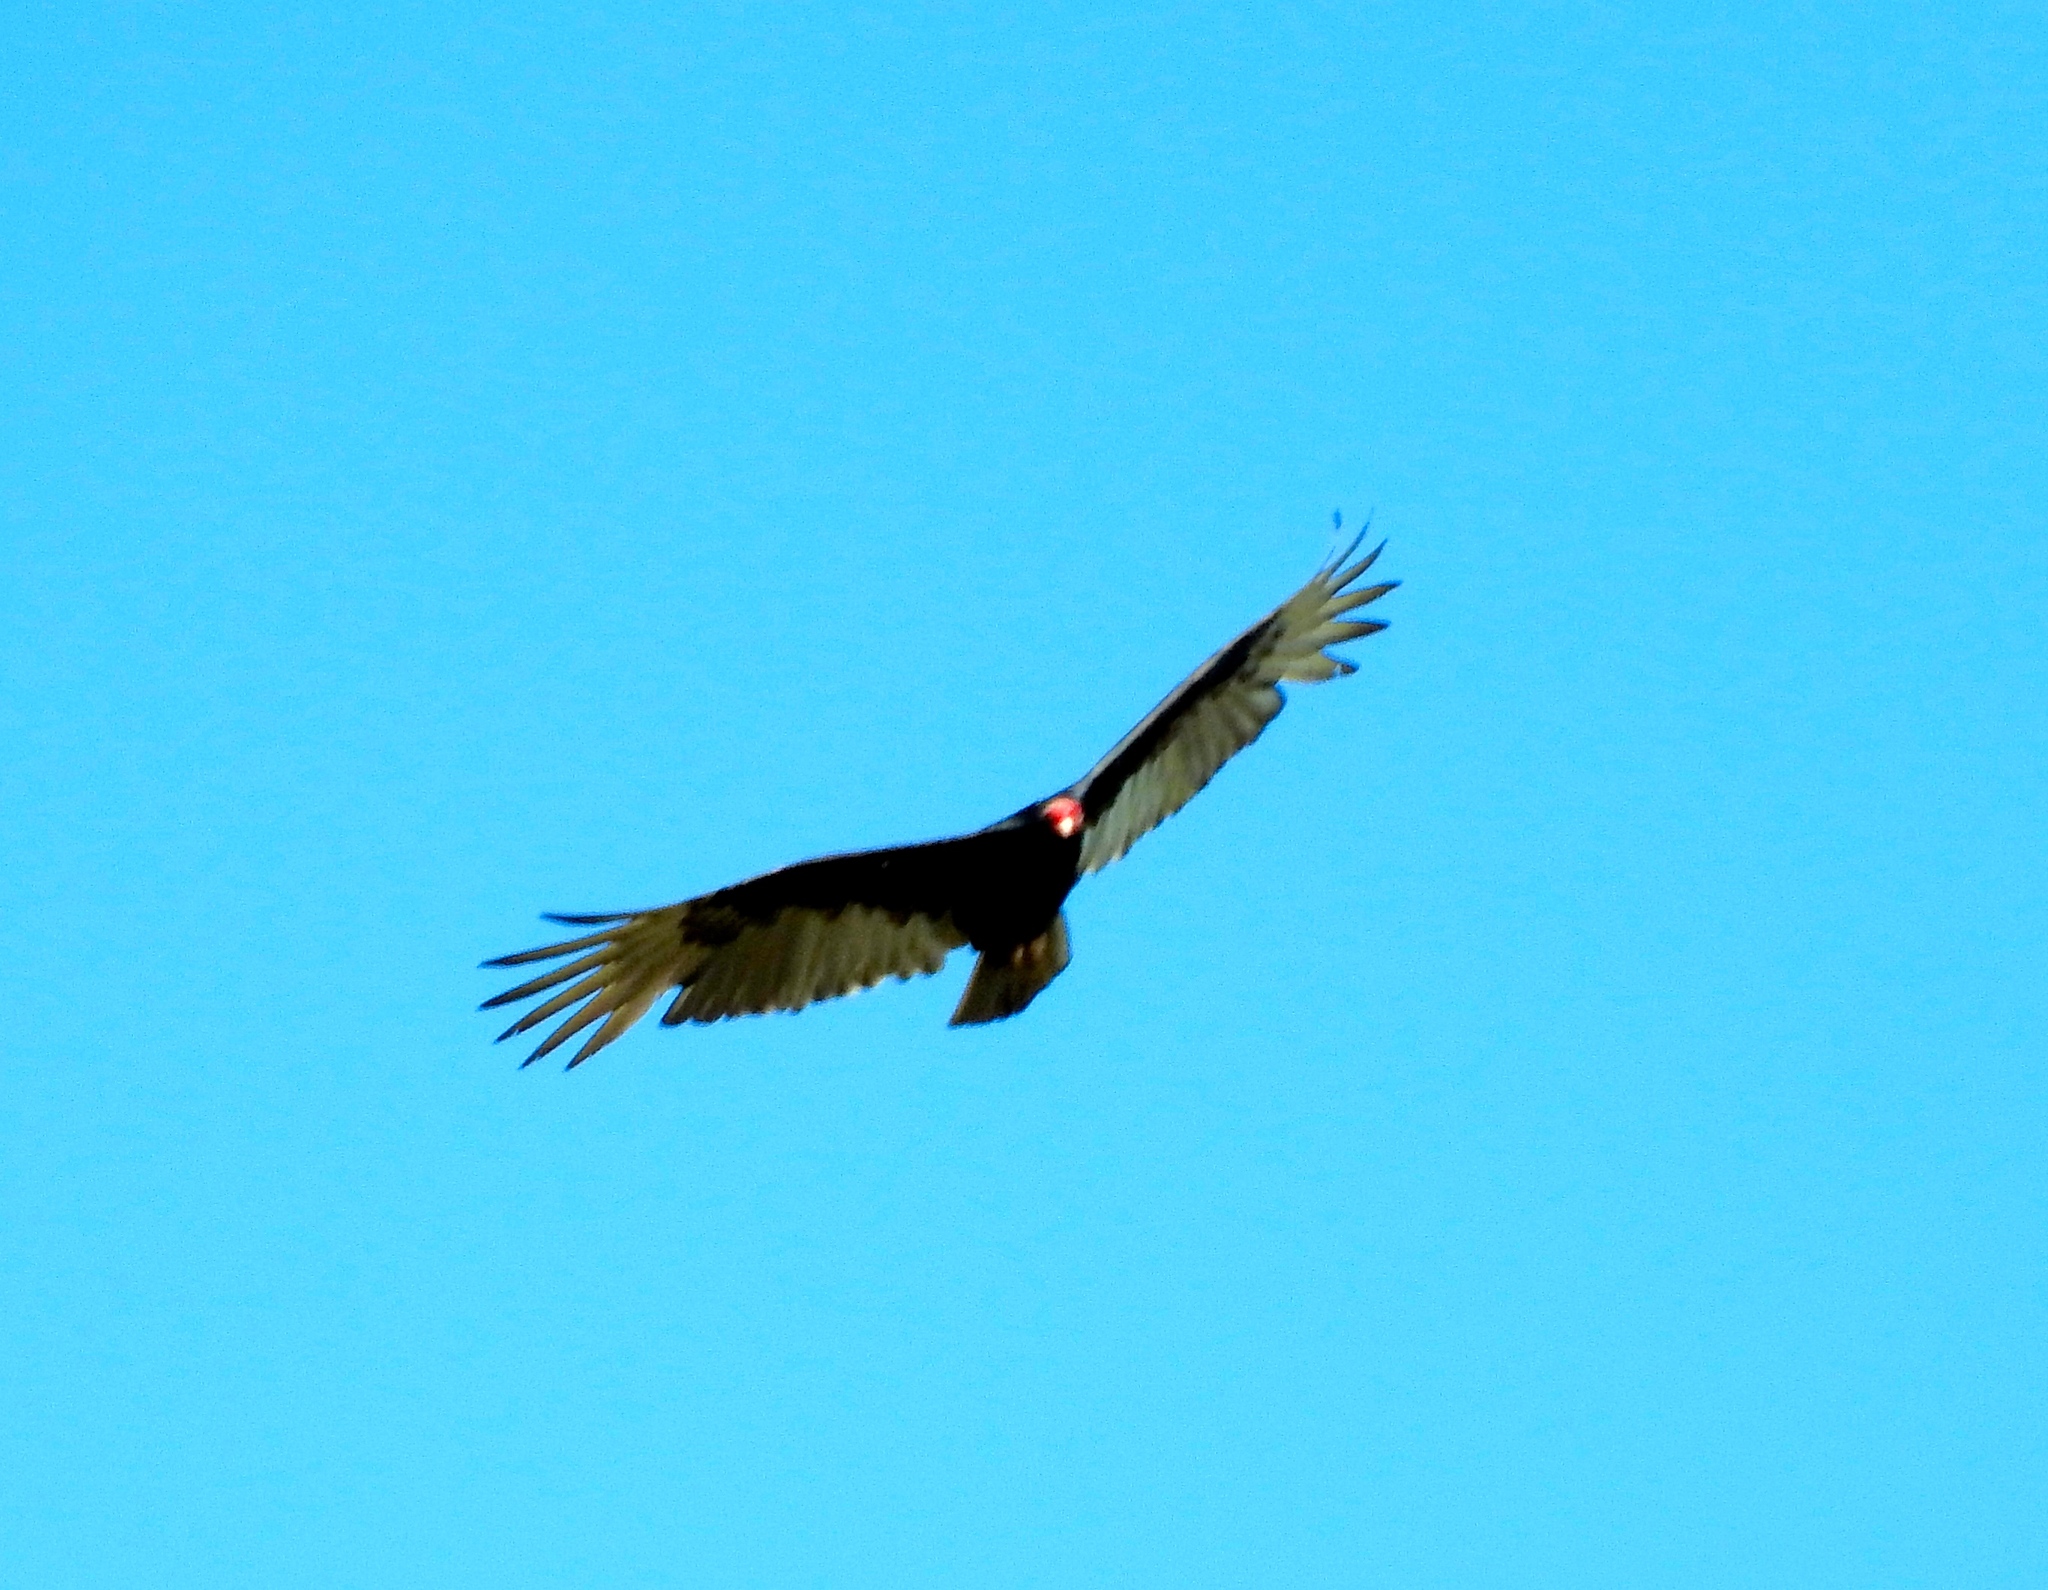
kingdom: Animalia
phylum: Chordata
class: Aves
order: Accipitriformes
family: Cathartidae
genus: Cathartes
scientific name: Cathartes aura
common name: Turkey vulture
